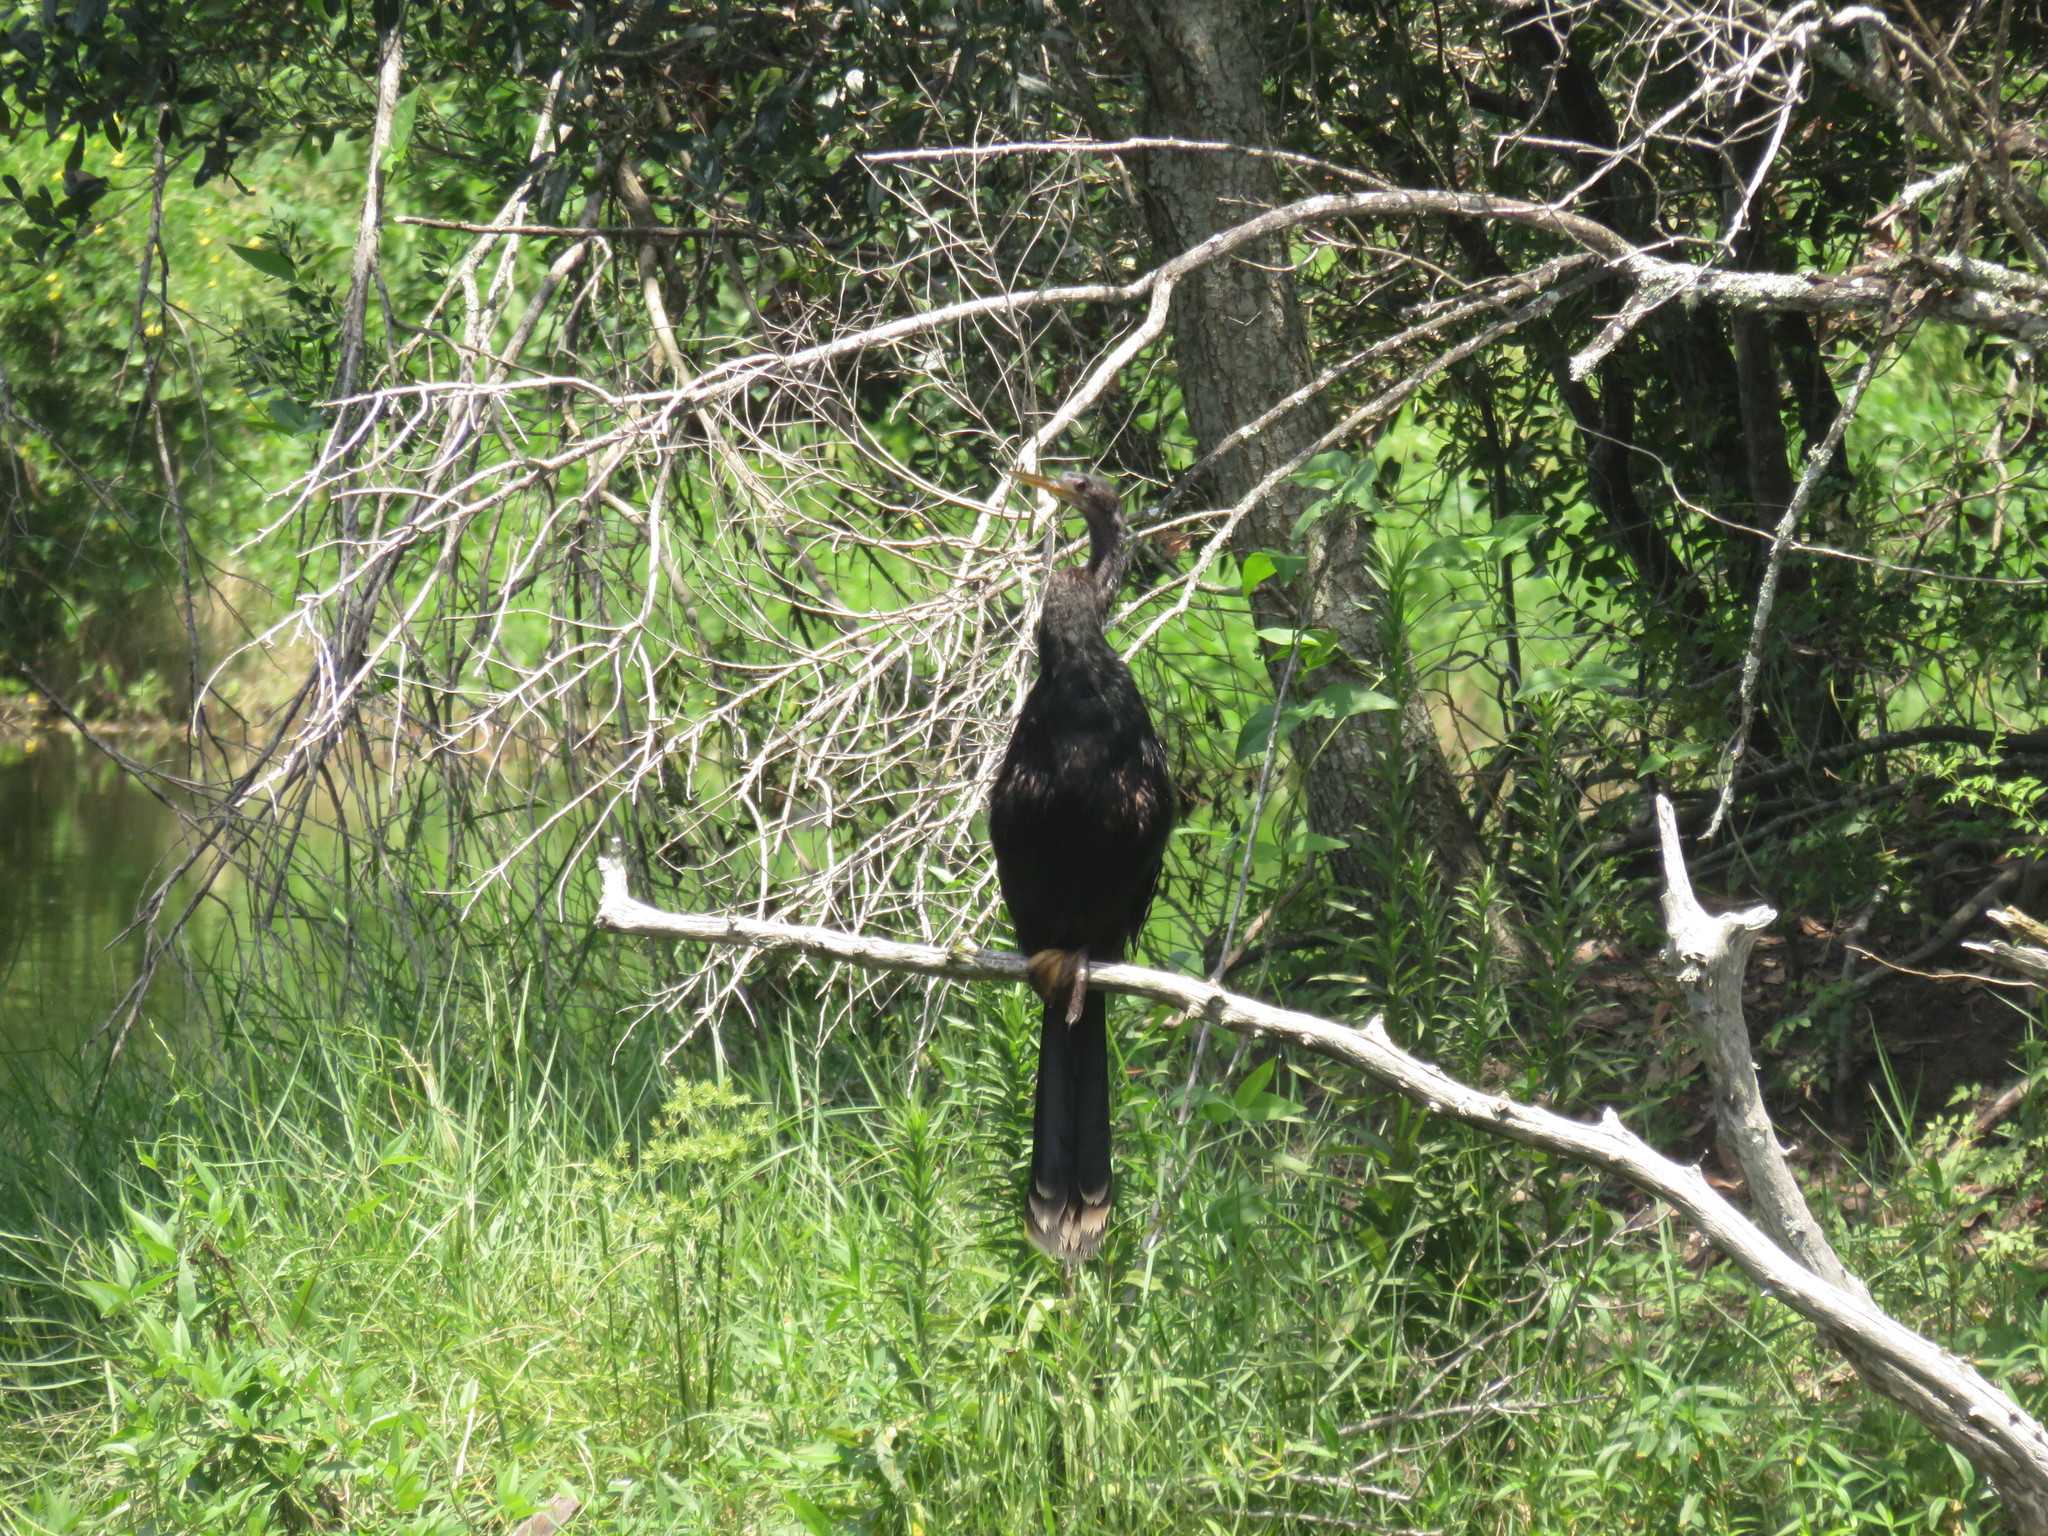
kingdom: Animalia
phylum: Chordata
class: Aves
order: Suliformes
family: Anhingidae
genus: Anhinga
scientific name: Anhinga anhinga
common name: Anhinga
